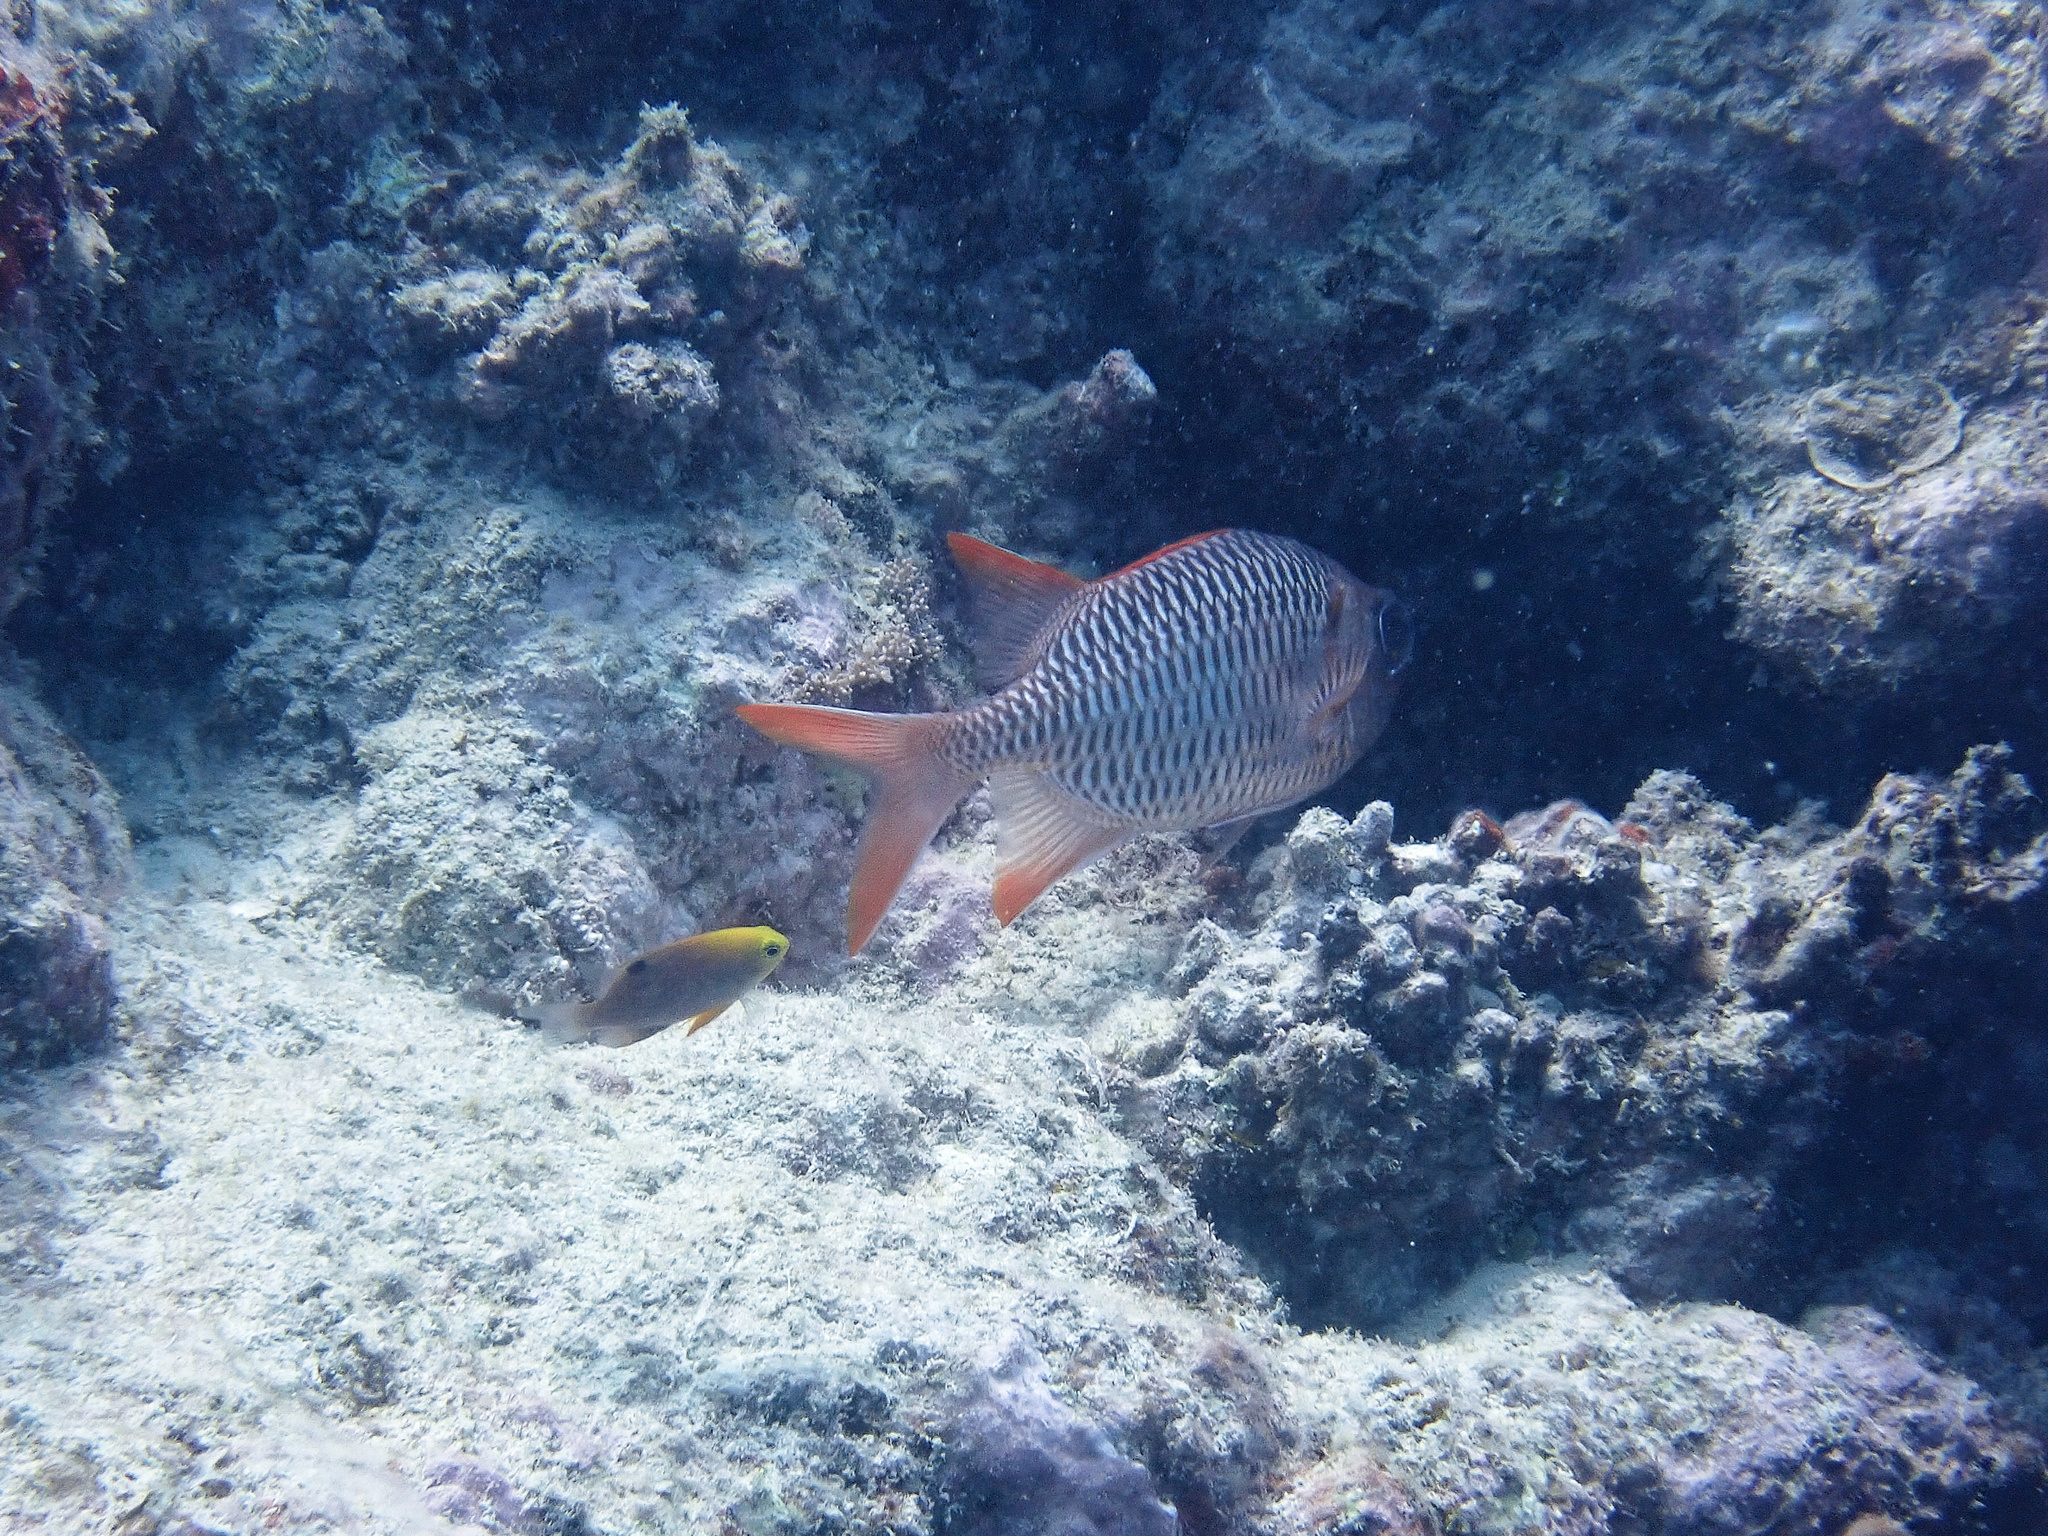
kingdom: Animalia
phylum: Chordata
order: Beryciformes
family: Holocentridae
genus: Myripristis
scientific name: Myripristis violacea
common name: Lattice soldierfish
